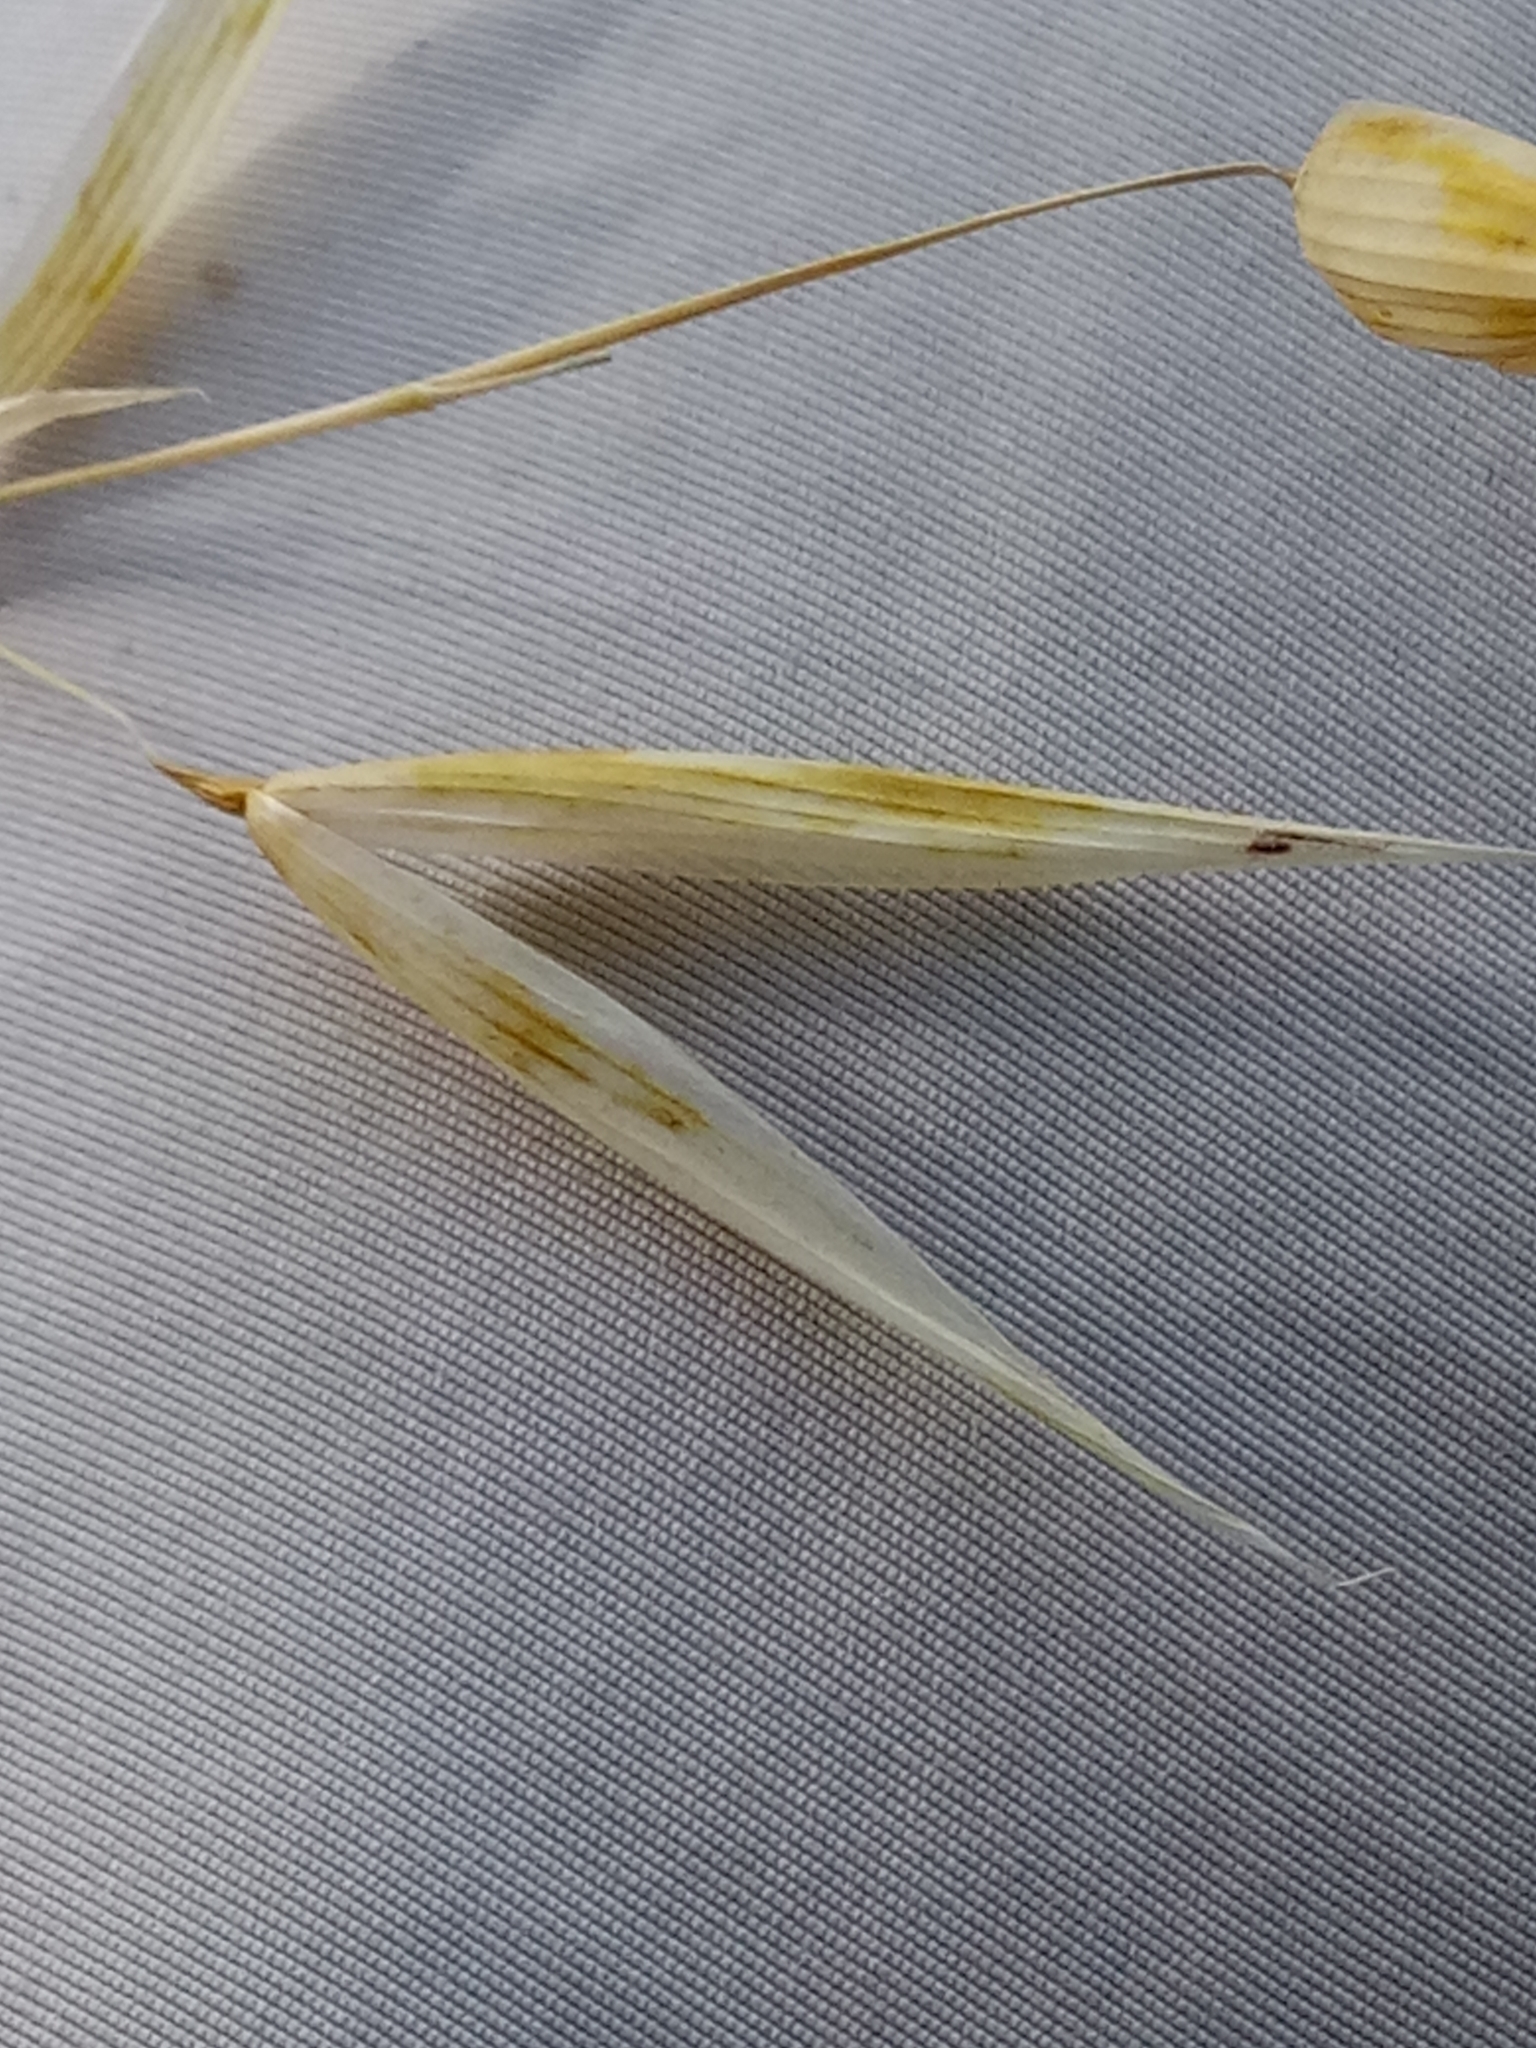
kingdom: Plantae
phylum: Tracheophyta
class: Liliopsida
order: Poales
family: Poaceae
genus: Avena
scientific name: Avena fatua
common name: Wild oat
